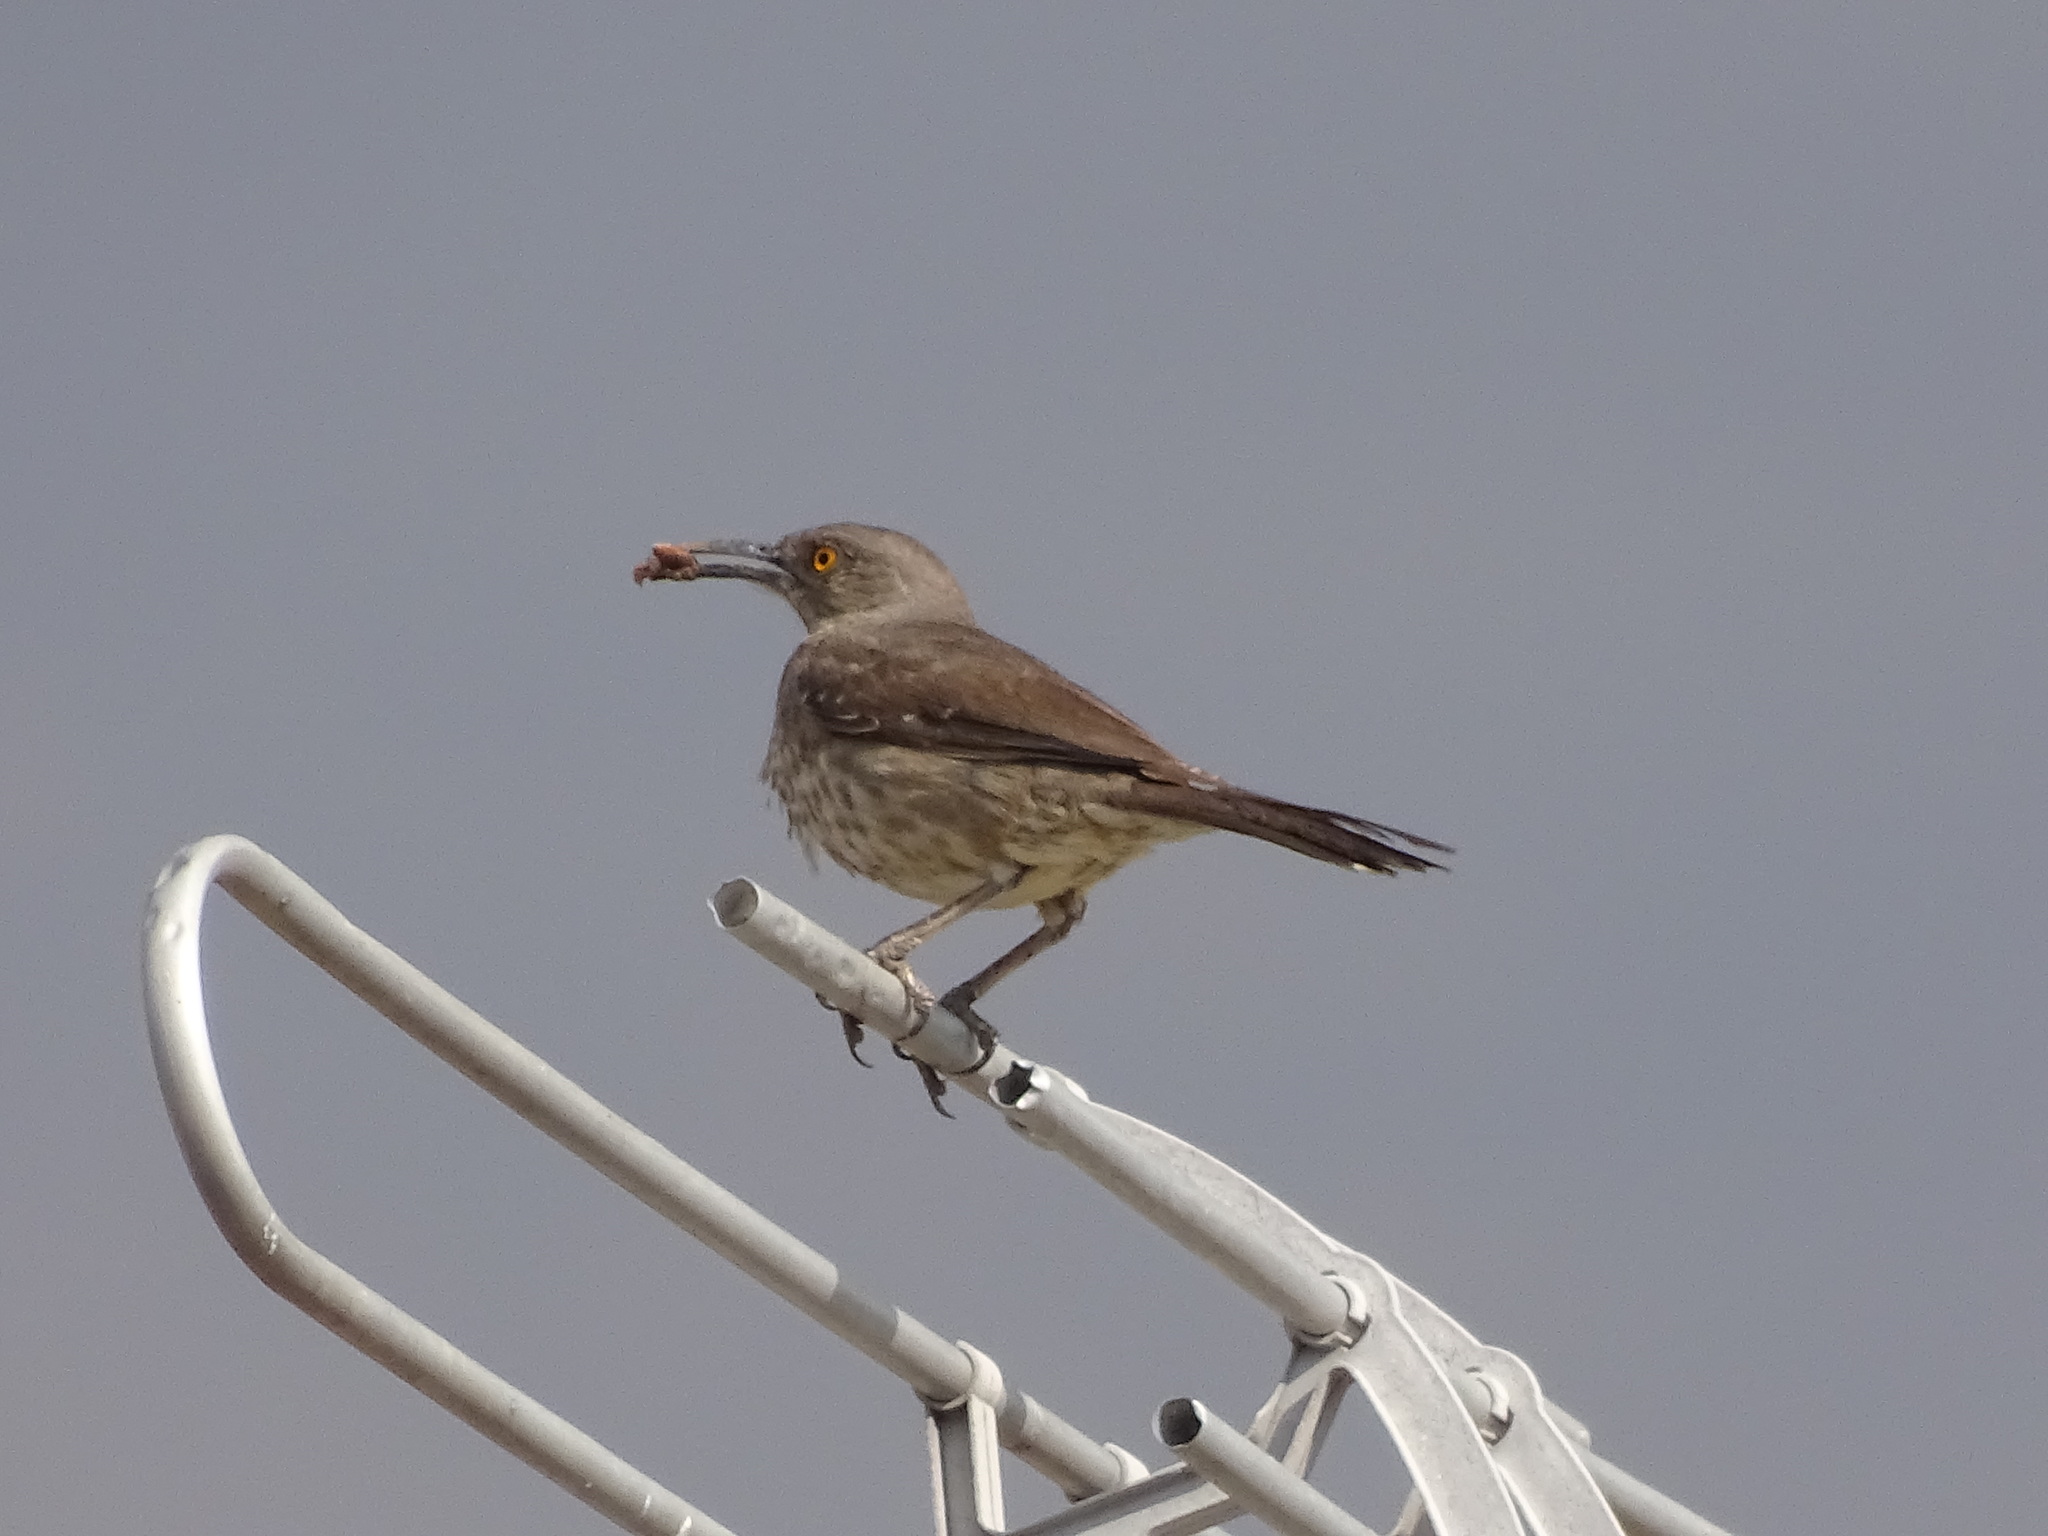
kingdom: Animalia
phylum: Chordata
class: Aves
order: Passeriformes
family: Mimidae
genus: Toxostoma
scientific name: Toxostoma curvirostre
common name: Curve-billed thrasher
